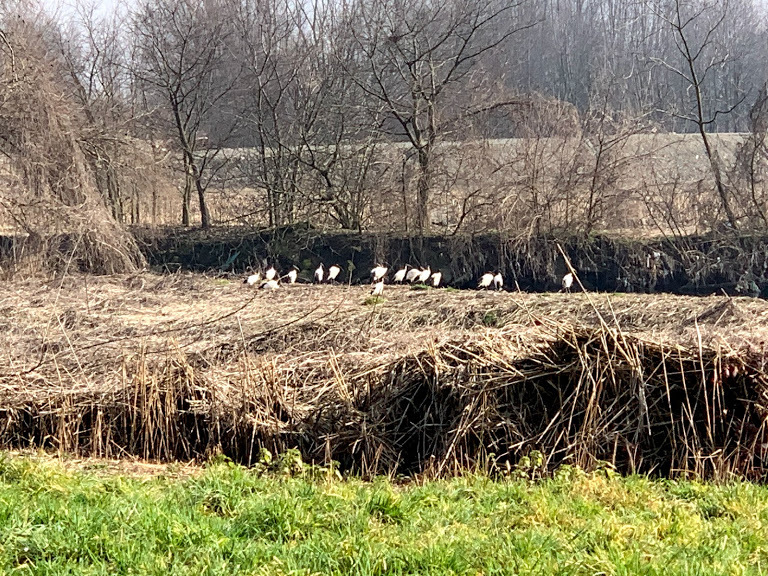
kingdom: Animalia
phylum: Chordata
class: Aves
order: Pelecaniformes
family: Threskiornithidae
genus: Threskiornis
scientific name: Threskiornis aethiopicus
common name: Sacred ibis
